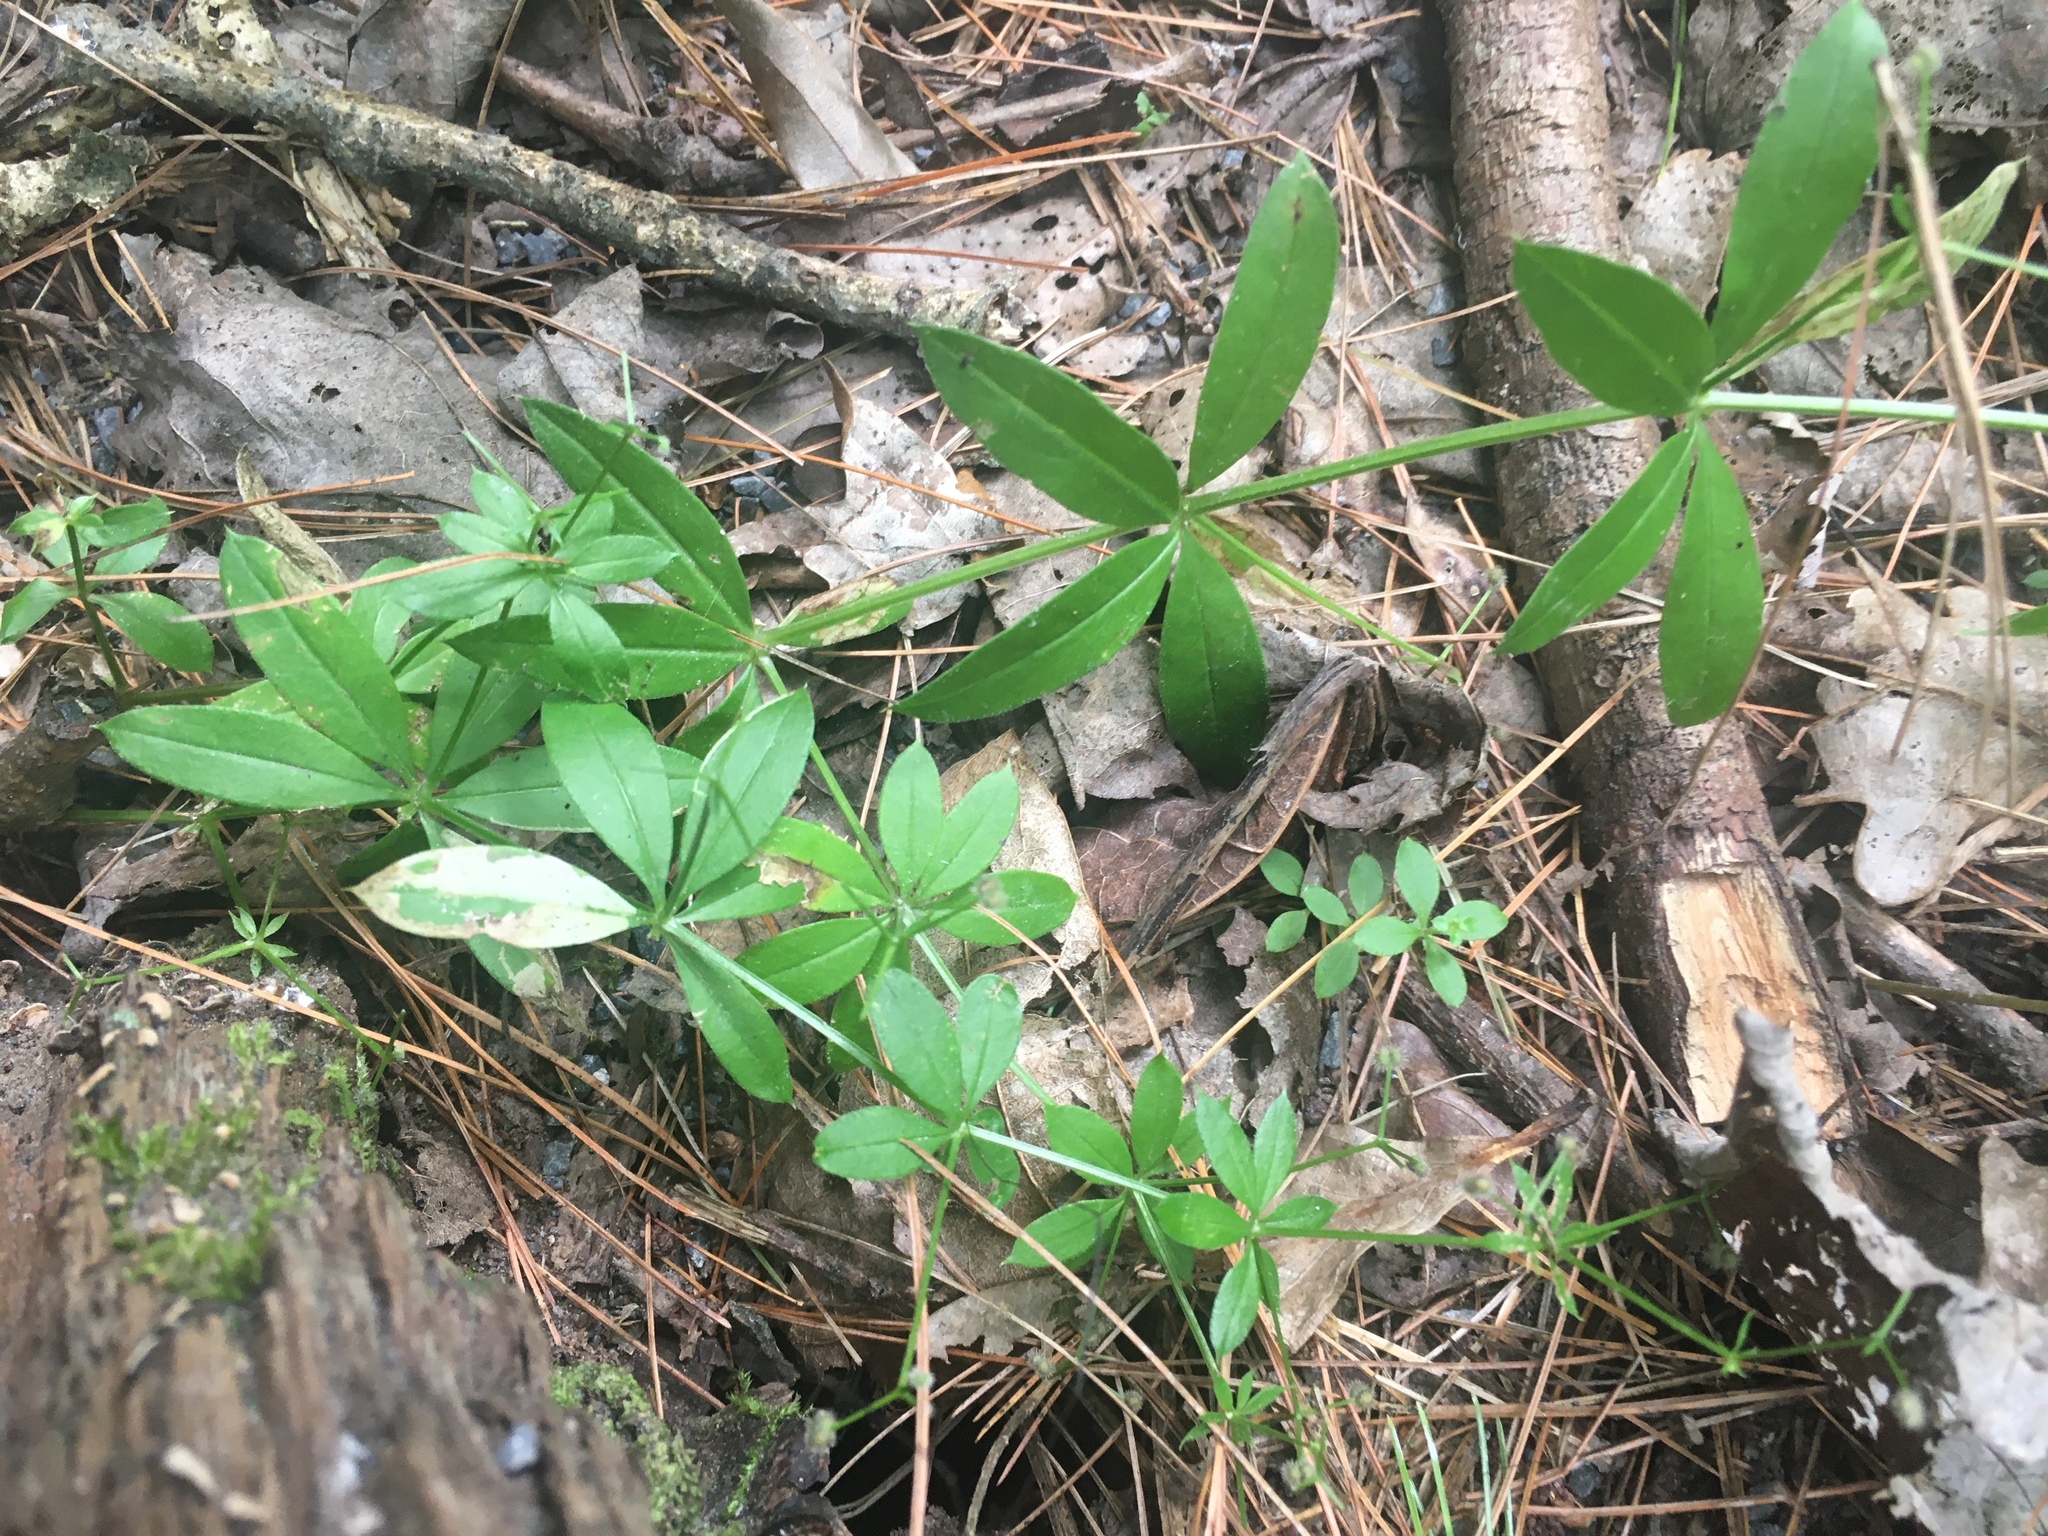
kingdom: Plantae
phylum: Tracheophyta
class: Magnoliopsida
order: Gentianales
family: Rubiaceae
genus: Galium
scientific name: Galium triflorum
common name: Fragrant bedstraw
